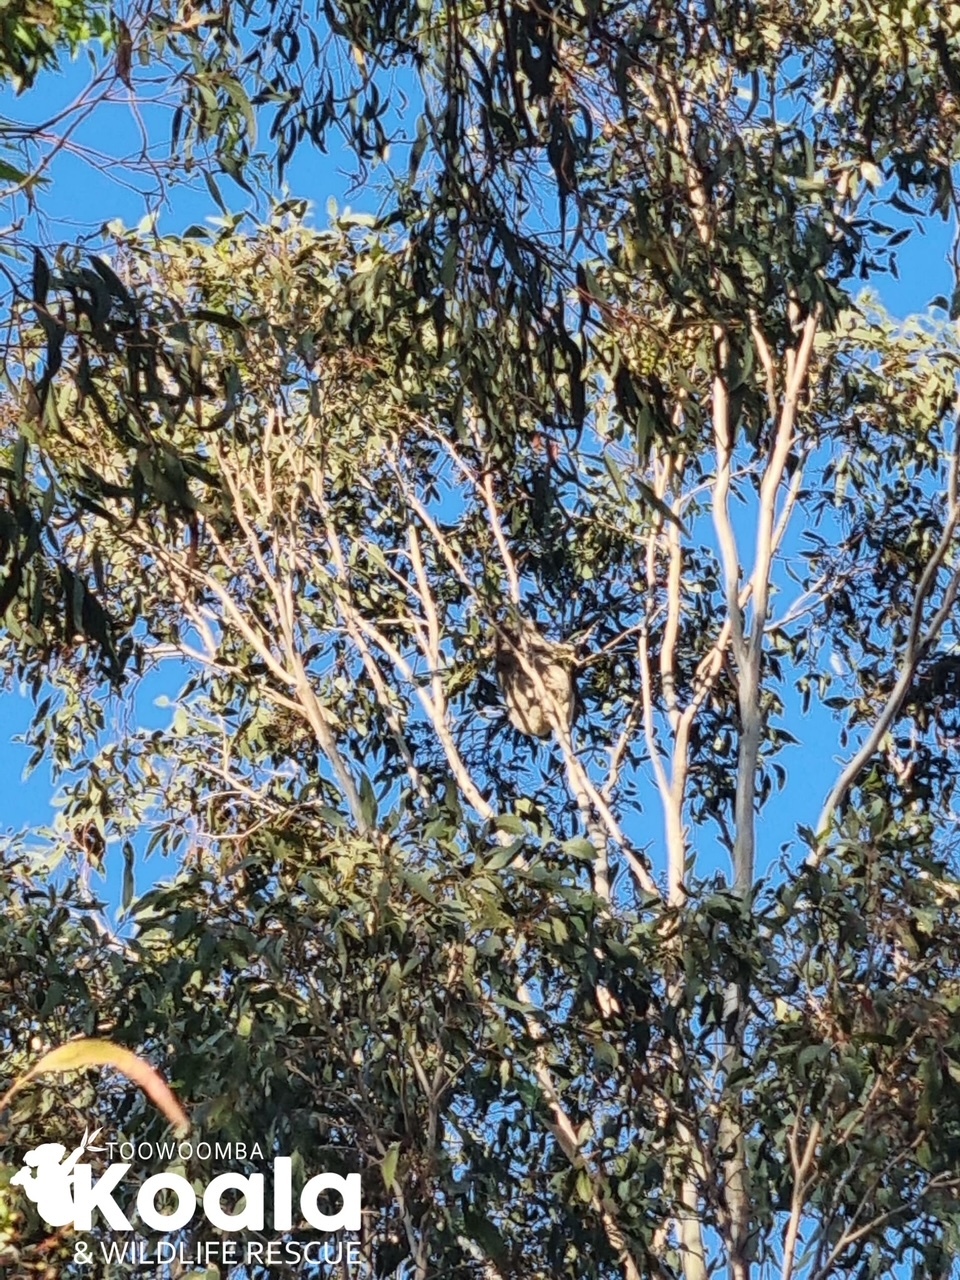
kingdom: Animalia
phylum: Chordata
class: Mammalia
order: Diprotodontia
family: Phascolarctidae
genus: Phascolarctos
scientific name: Phascolarctos cinereus
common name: Koala
